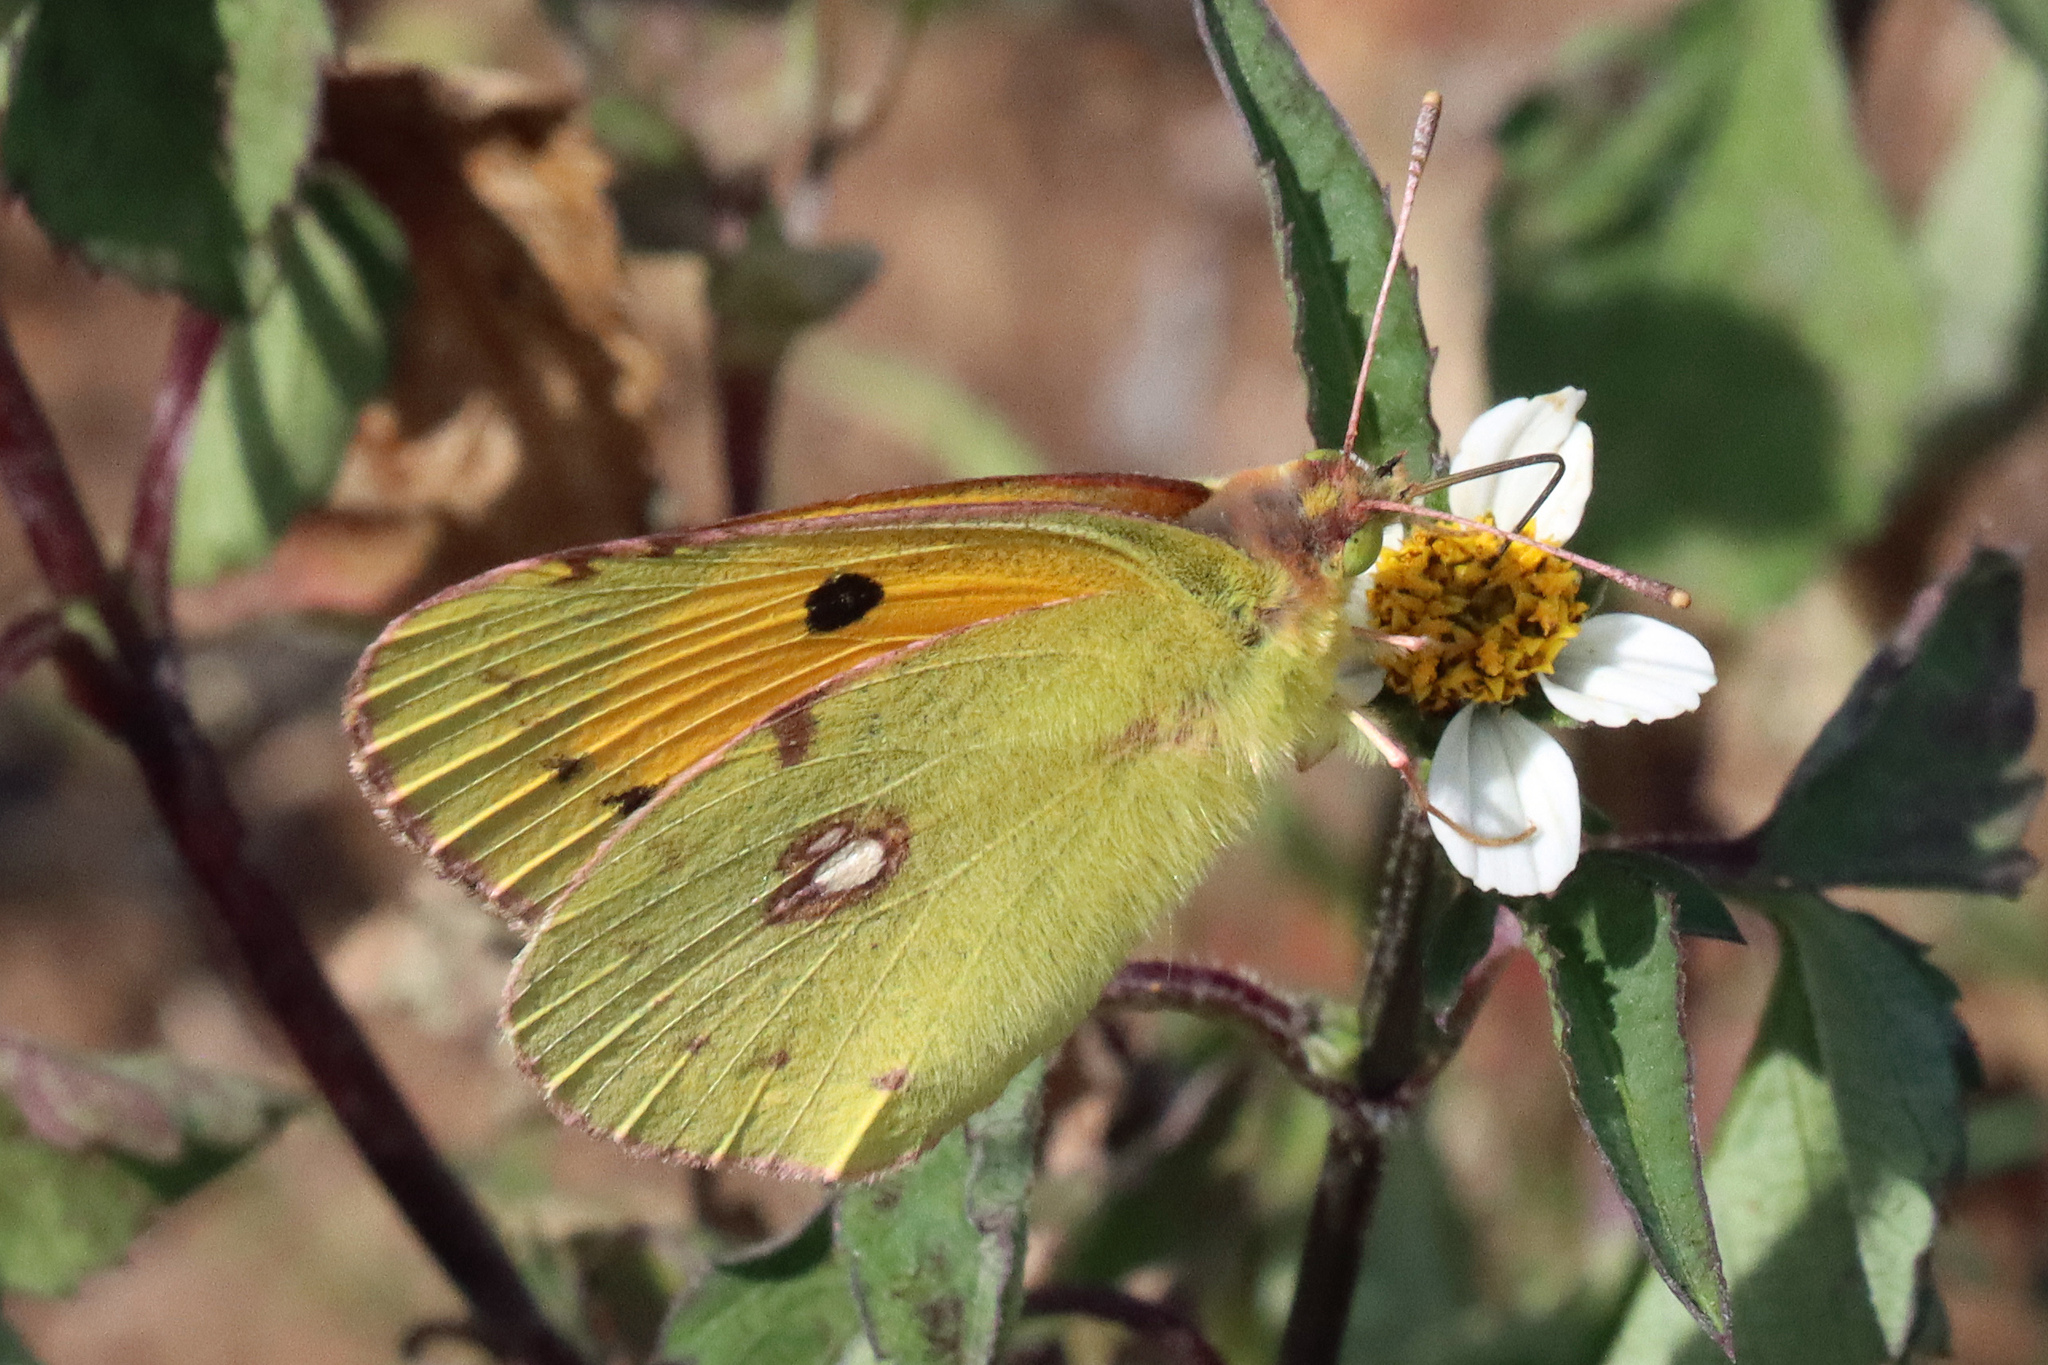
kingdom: Animalia
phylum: Arthropoda
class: Insecta
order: Lepidoptera
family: Pieridae
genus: Colias
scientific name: Colias croceus
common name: Clouded yellow
